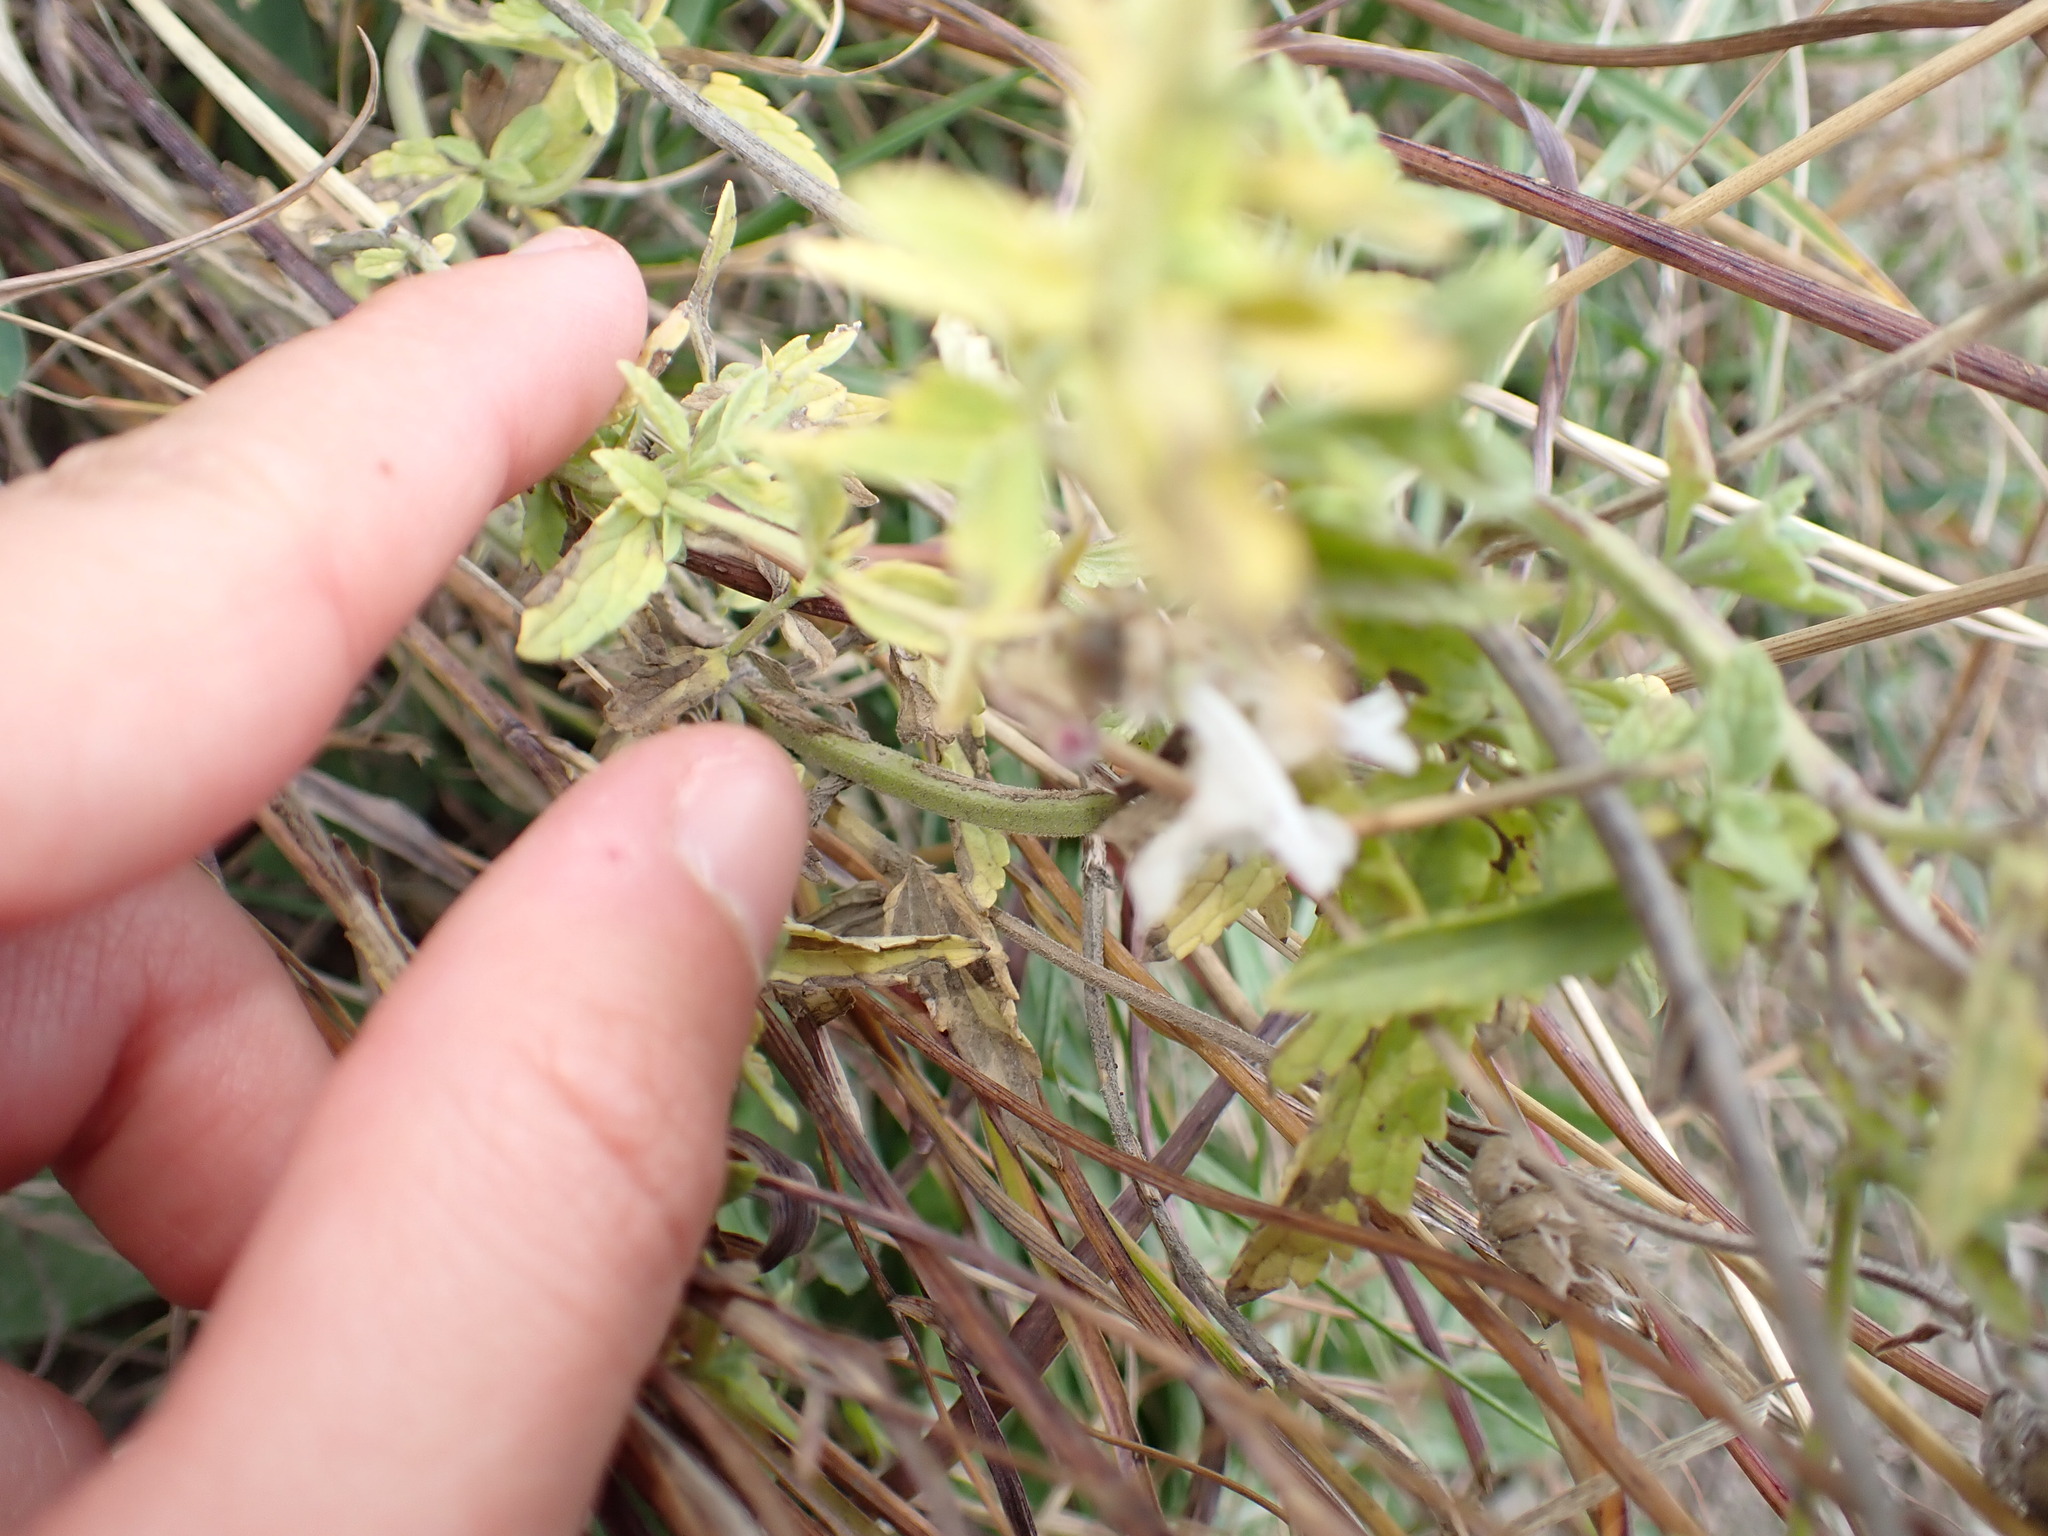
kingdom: Plantae
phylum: Tracheophyta
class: Magnoliopsida
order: Lamiales
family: Lamiaceae
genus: Nepeta
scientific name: Nepeta nepetella
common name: Lesser catmint
